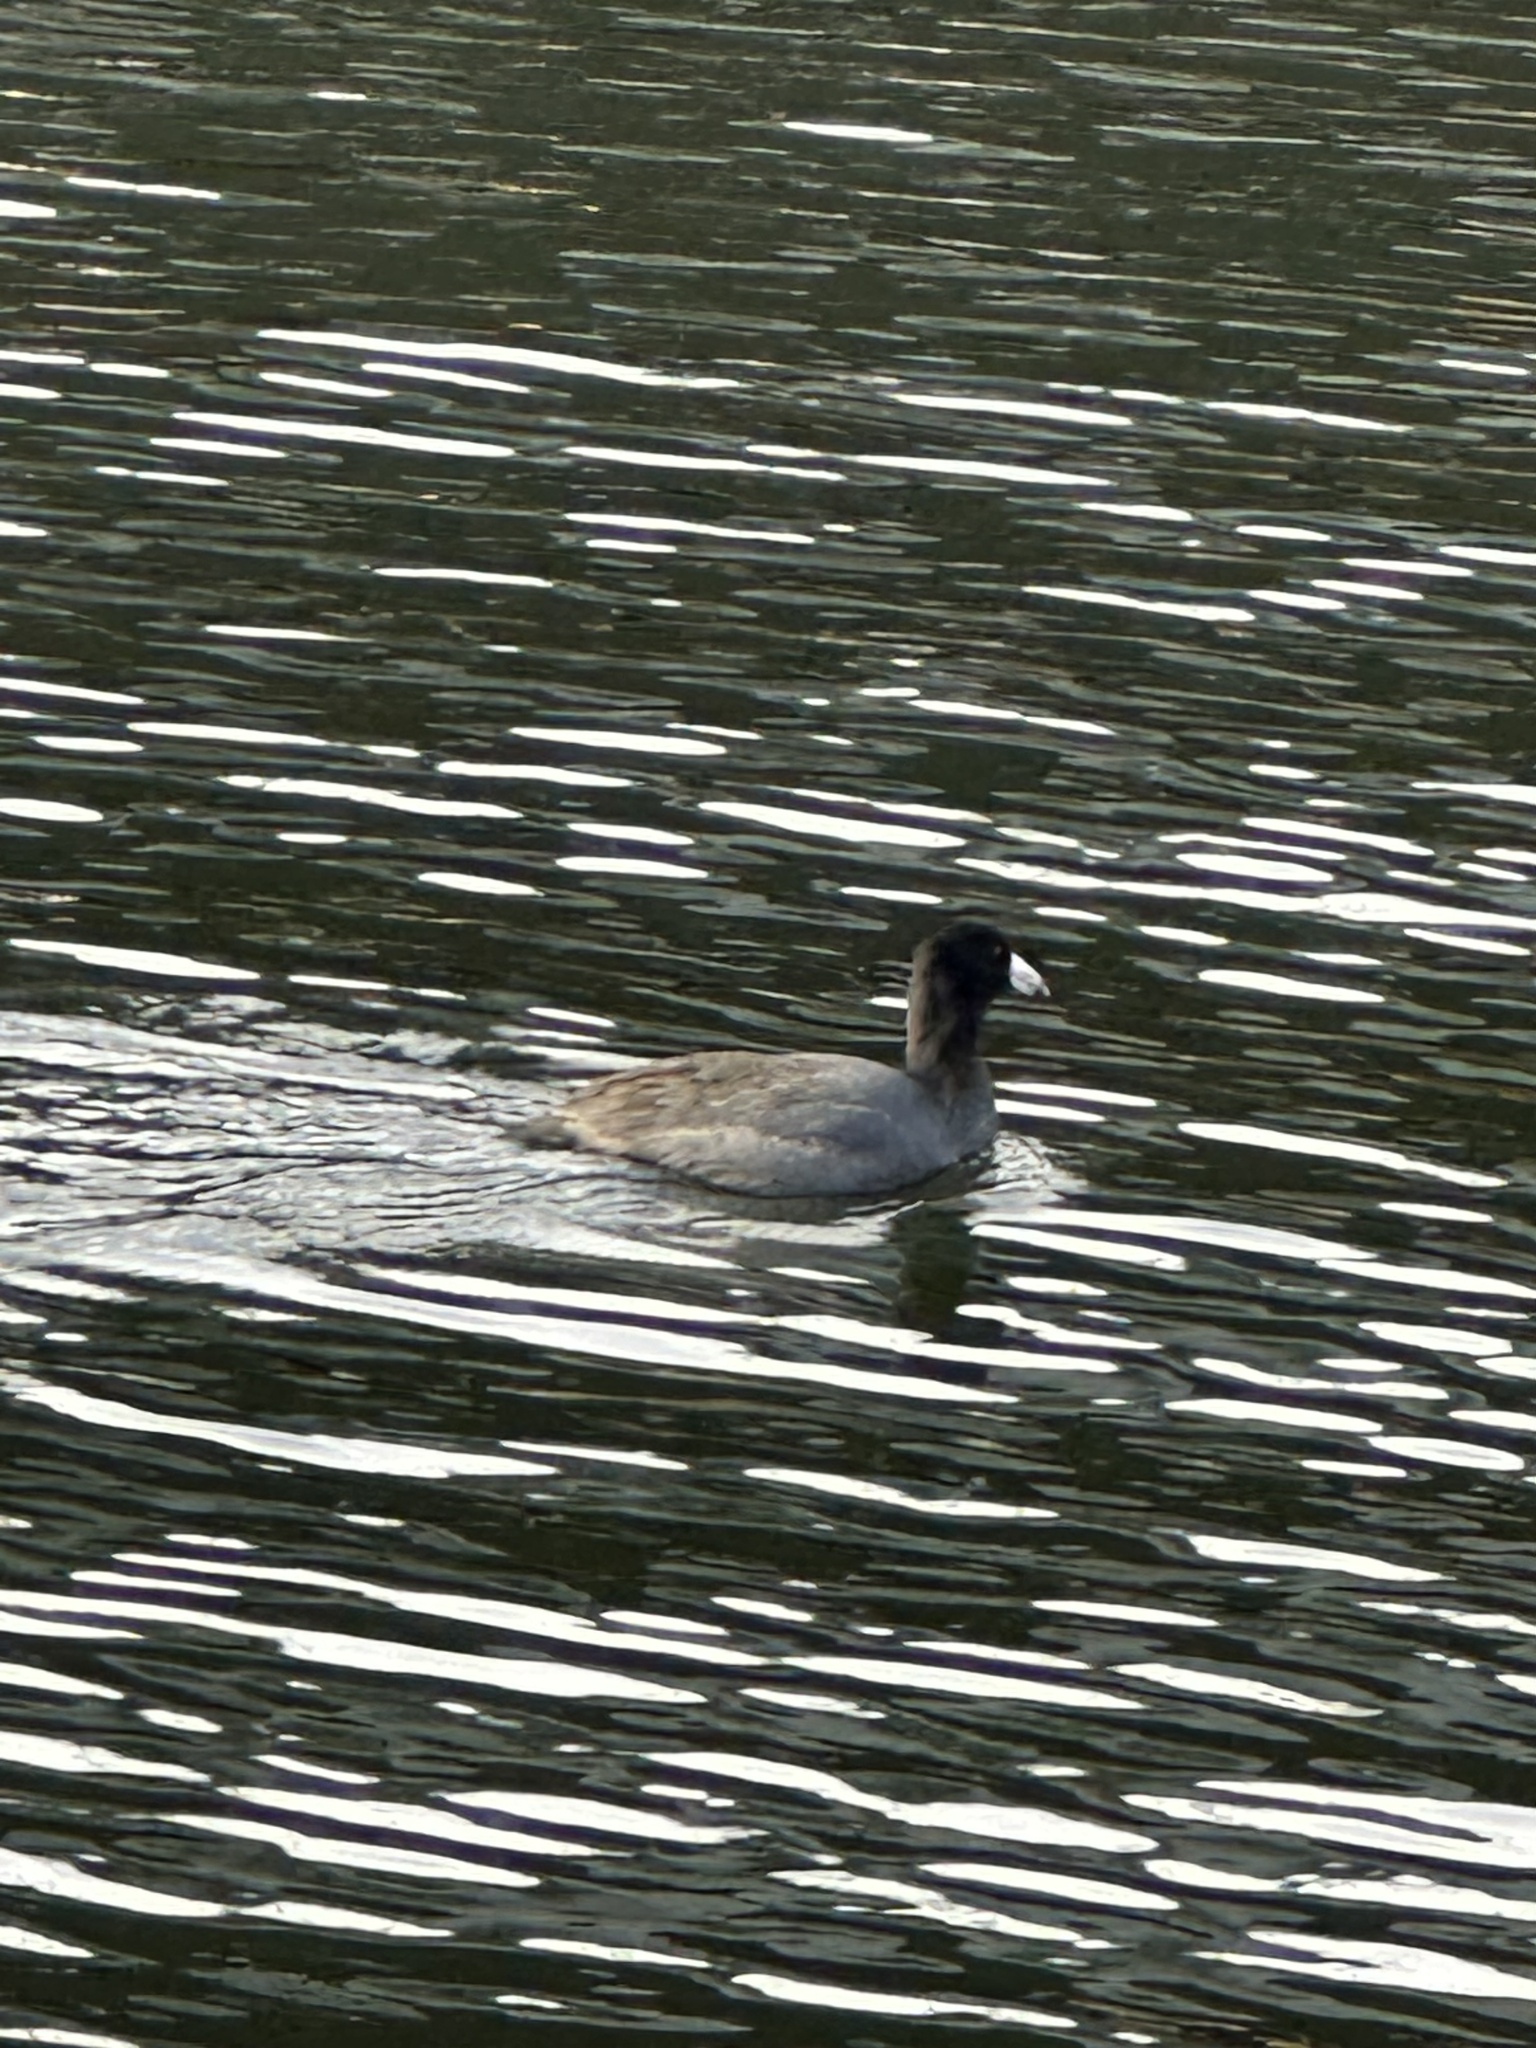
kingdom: Animalia
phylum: Chordata
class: Aves
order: Gruiformes
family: Rallidae
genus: Fulica
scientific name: Fulica americana
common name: American coot
